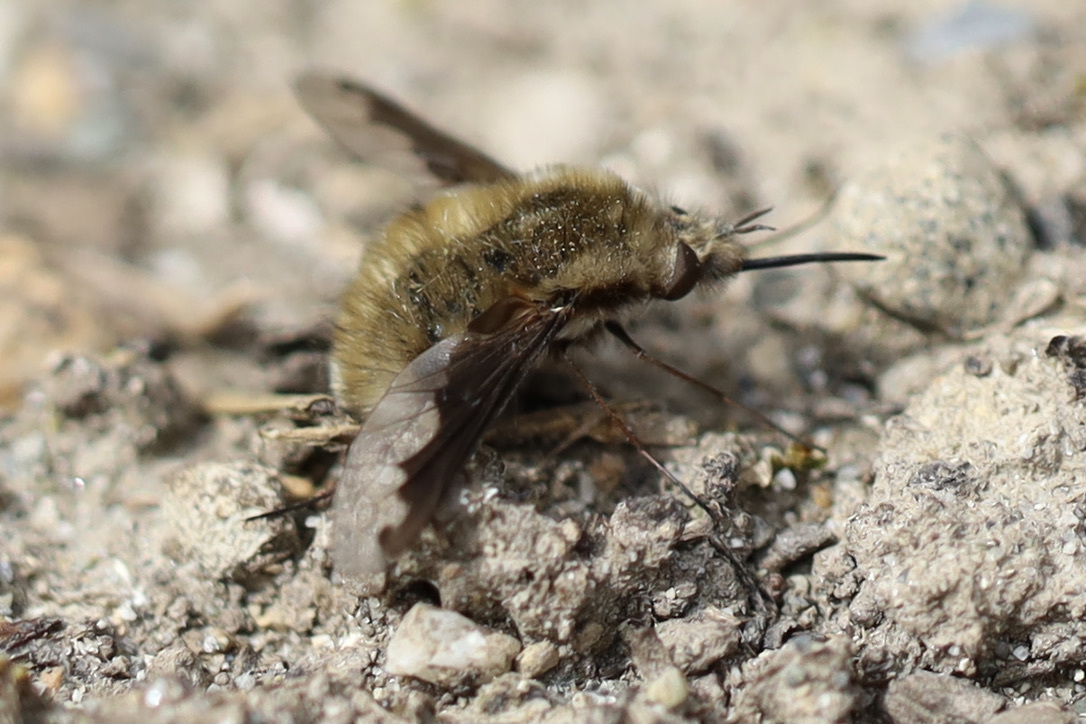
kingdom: Animalia
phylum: Arthropoda
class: Insecta
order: Diptera
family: Bombyliidae
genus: Bombylius
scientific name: Bombylius major
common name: Bee fly
